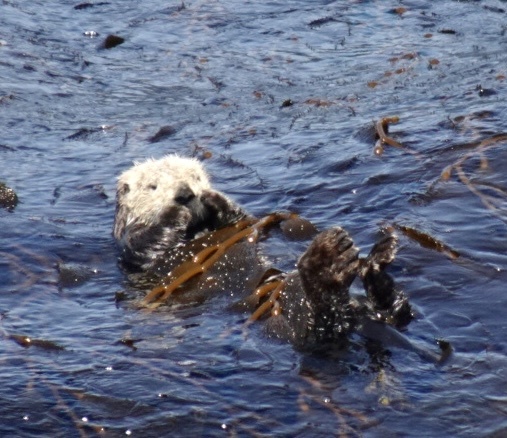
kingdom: Animalia
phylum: Chordata
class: Mammalia
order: Carnivora
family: Mustelidae
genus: Enhydra
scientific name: Enhydra lutris
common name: Sea otter
